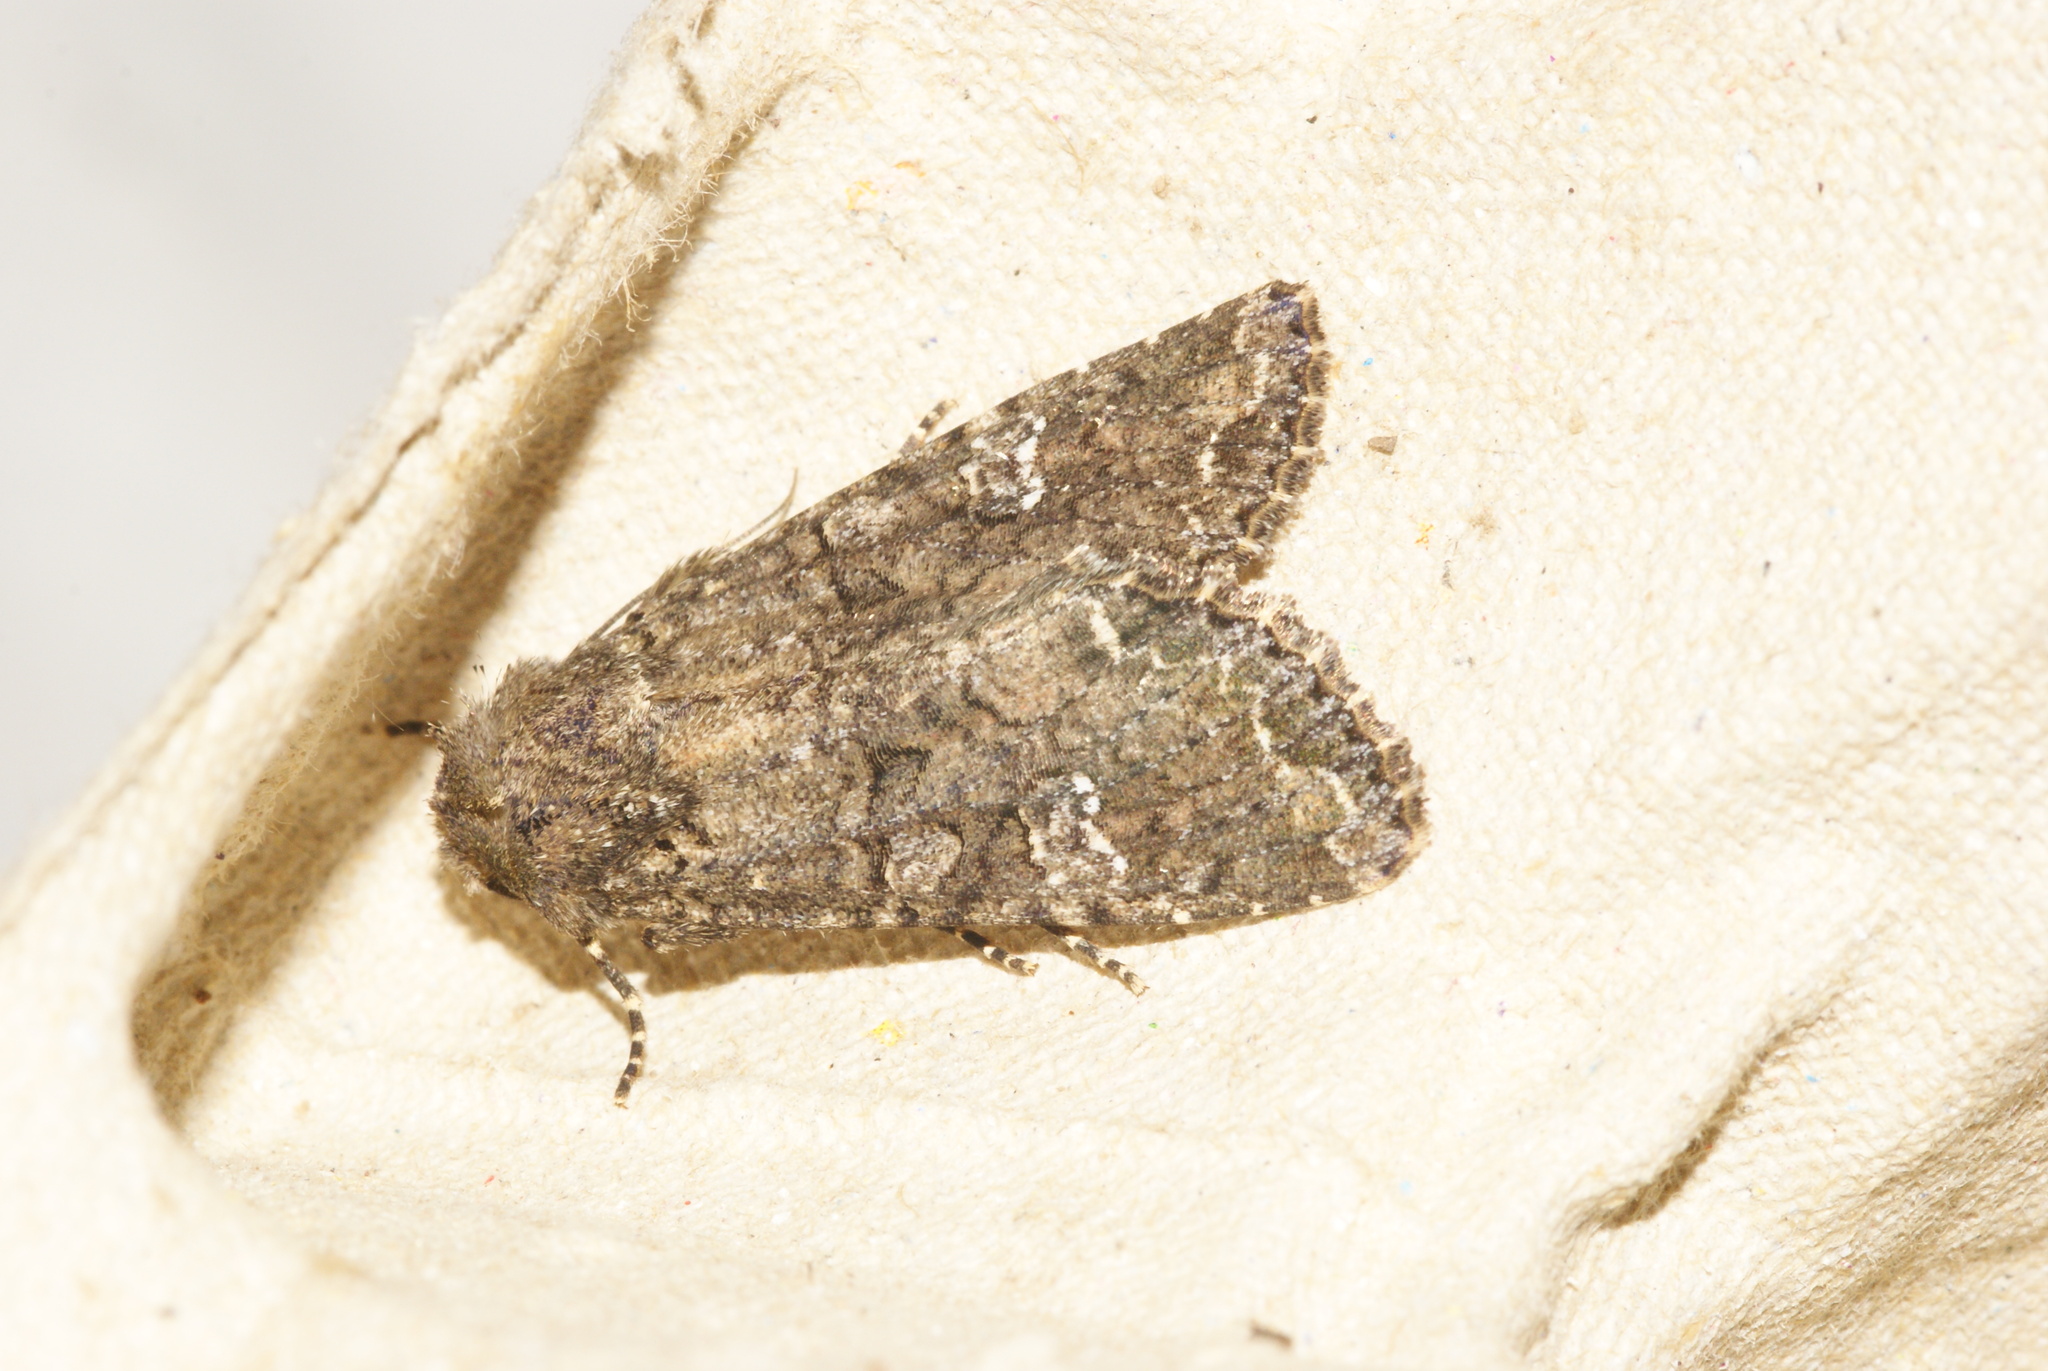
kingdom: Animalia
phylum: Arthropoda
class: Insecta
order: Lepidoptera
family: Noctuidae
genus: Mamestra
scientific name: Mamestra brassicae
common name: Cabbage moth
